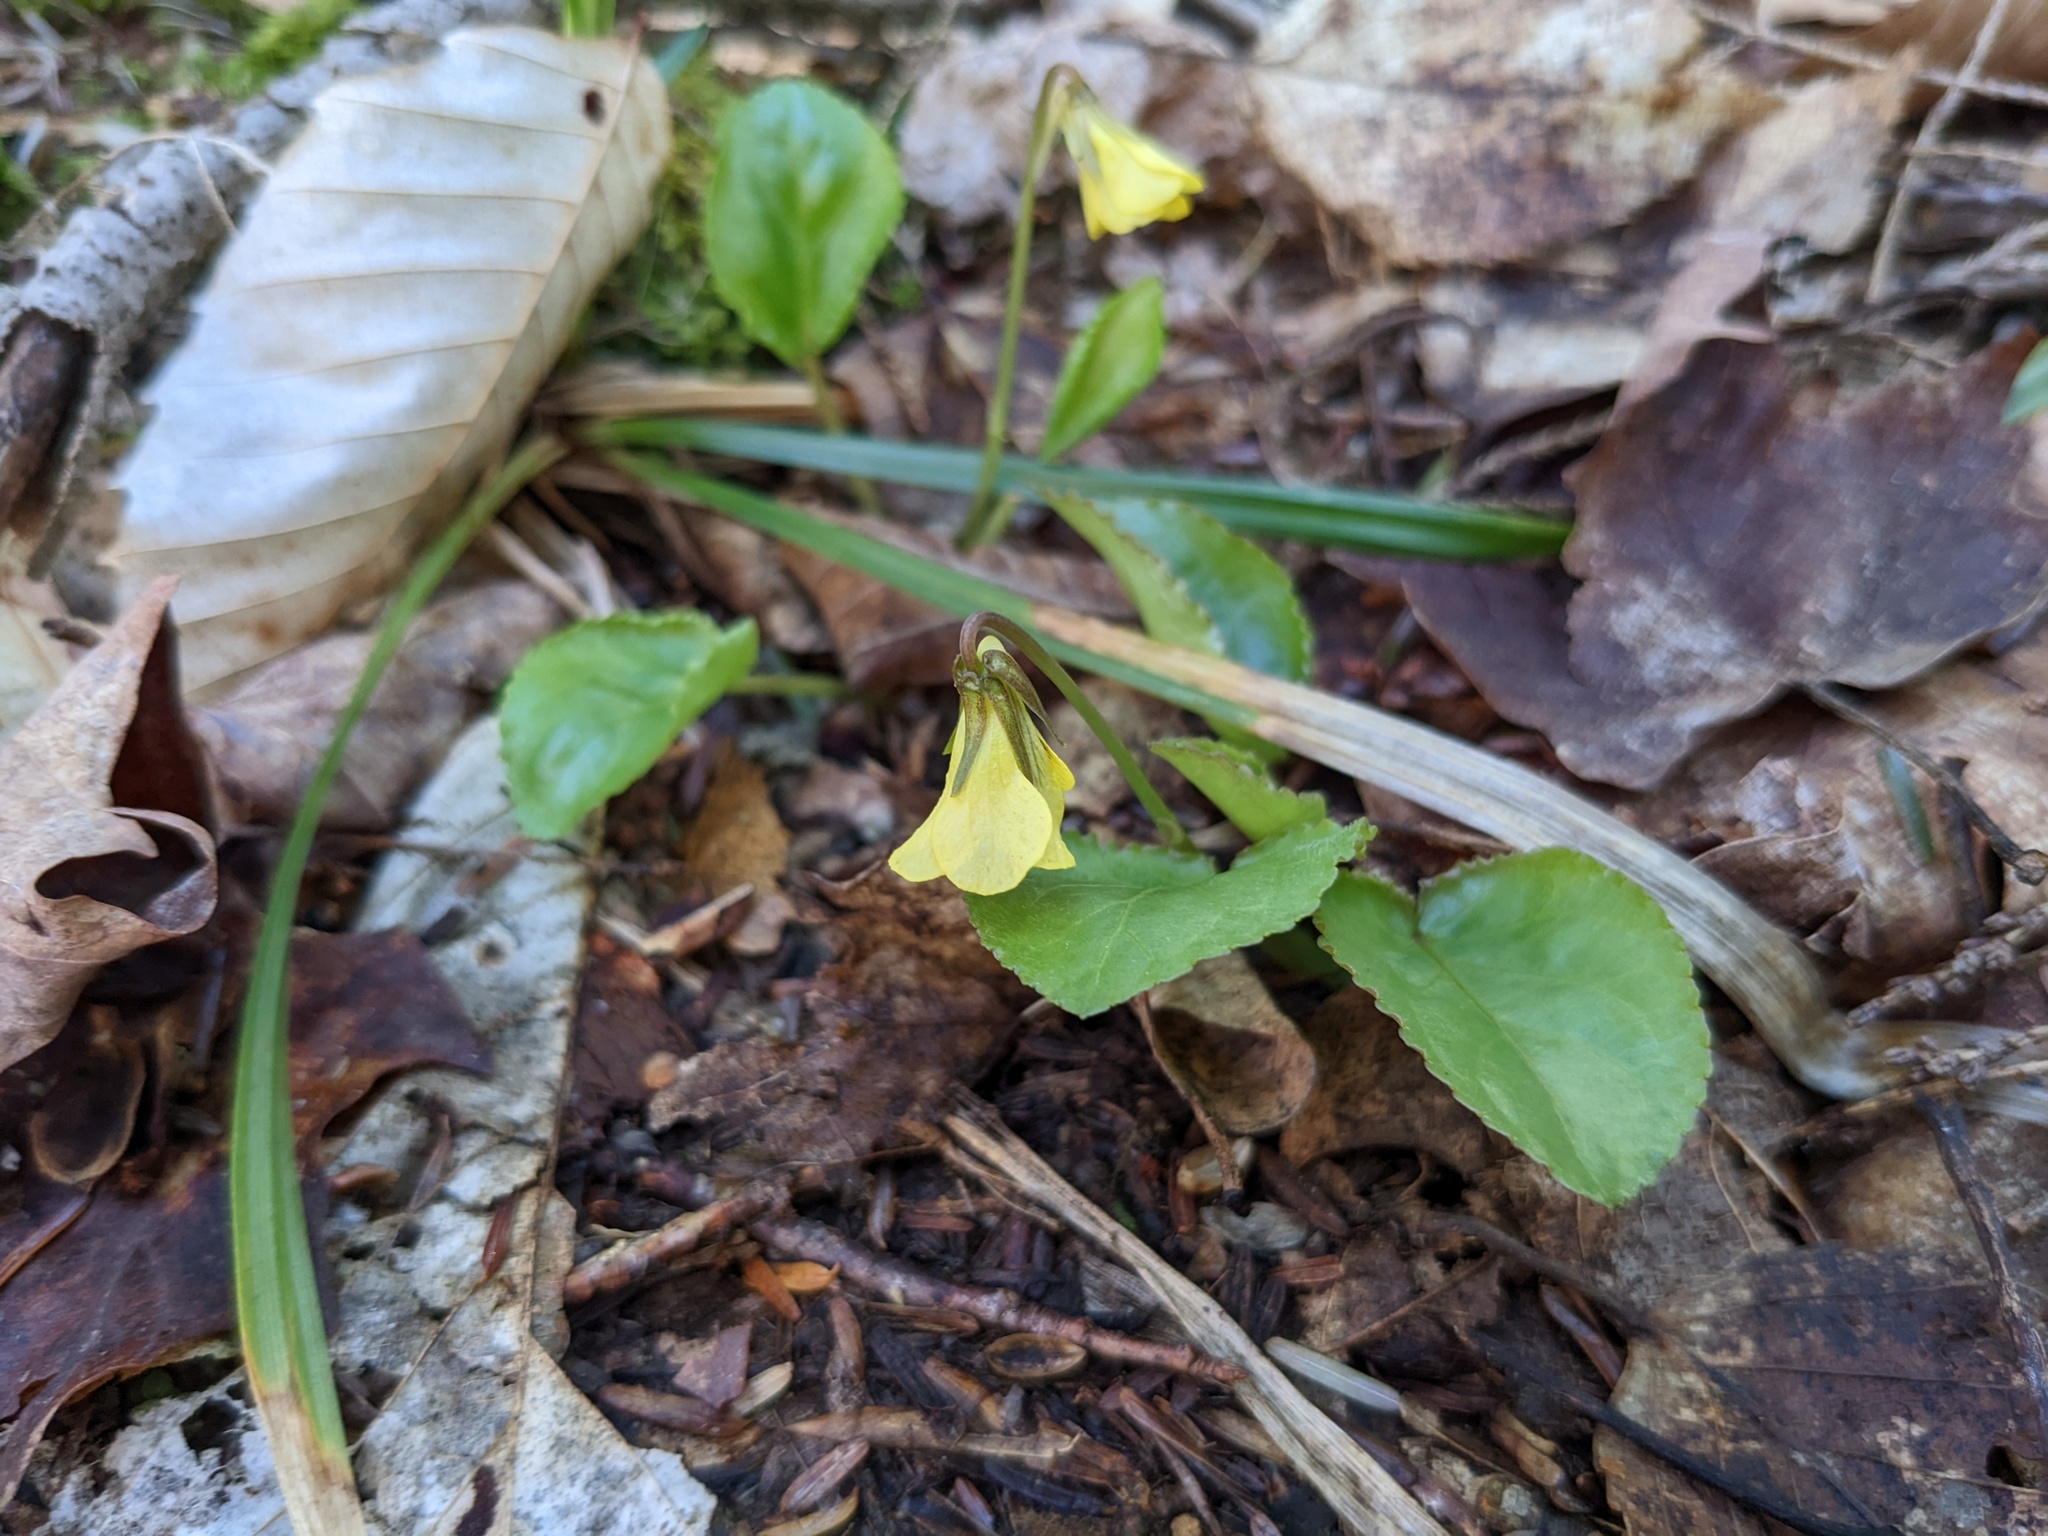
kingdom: Plantae
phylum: Tracheophyta
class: Magnoliopsida
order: Malpighiales
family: Violaceae
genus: Viola
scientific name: Viola rotundifolia
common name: Early yellow violet
